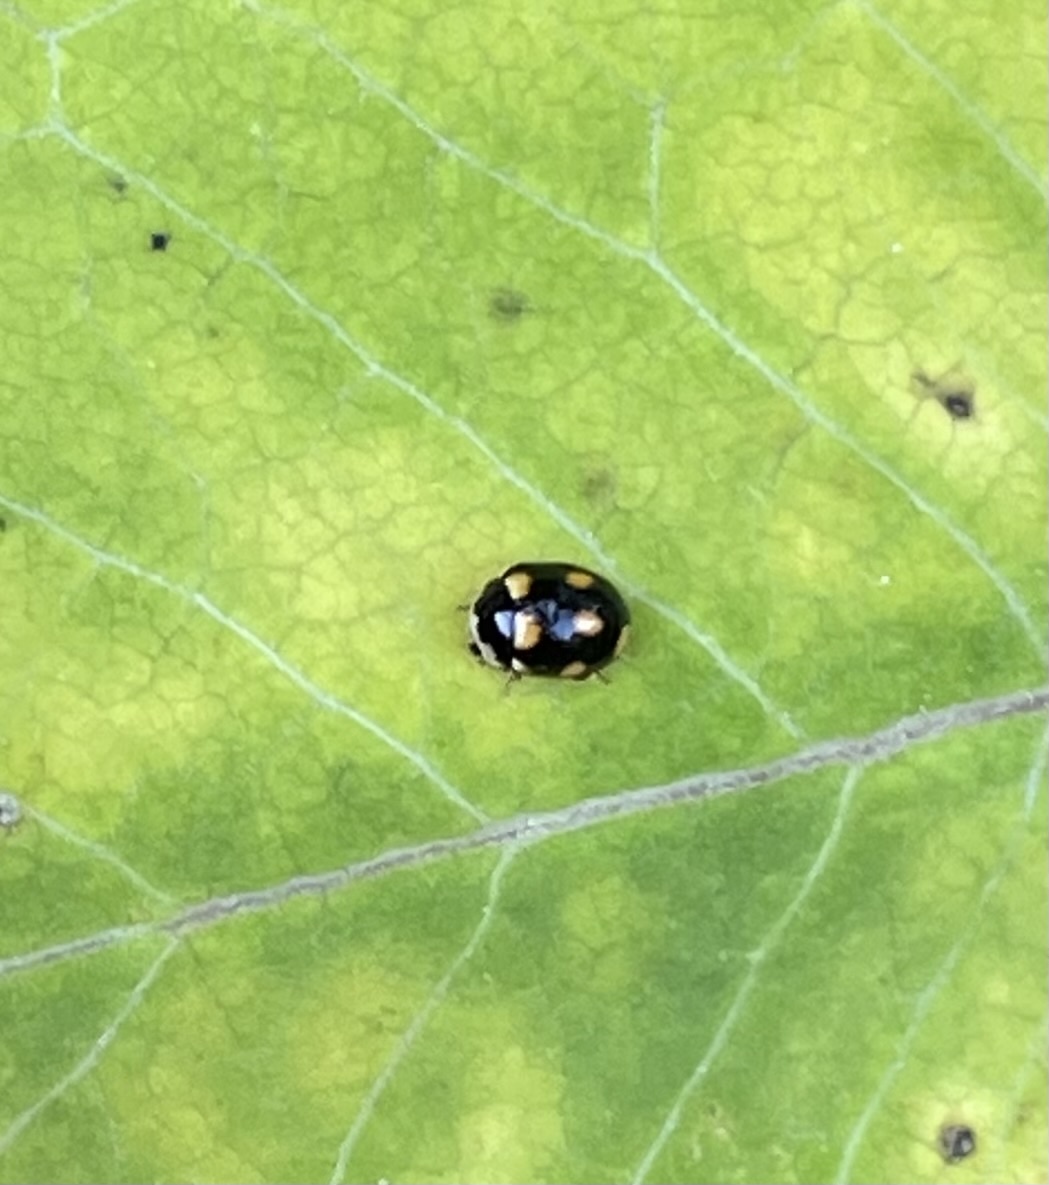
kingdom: Animalia
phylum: Arthropoda
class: Insecta
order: Coleoptera
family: Coccinellidae
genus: Brachiacantha
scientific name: Brachiacantha ursina
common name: Ursine spurleg lady beetle
